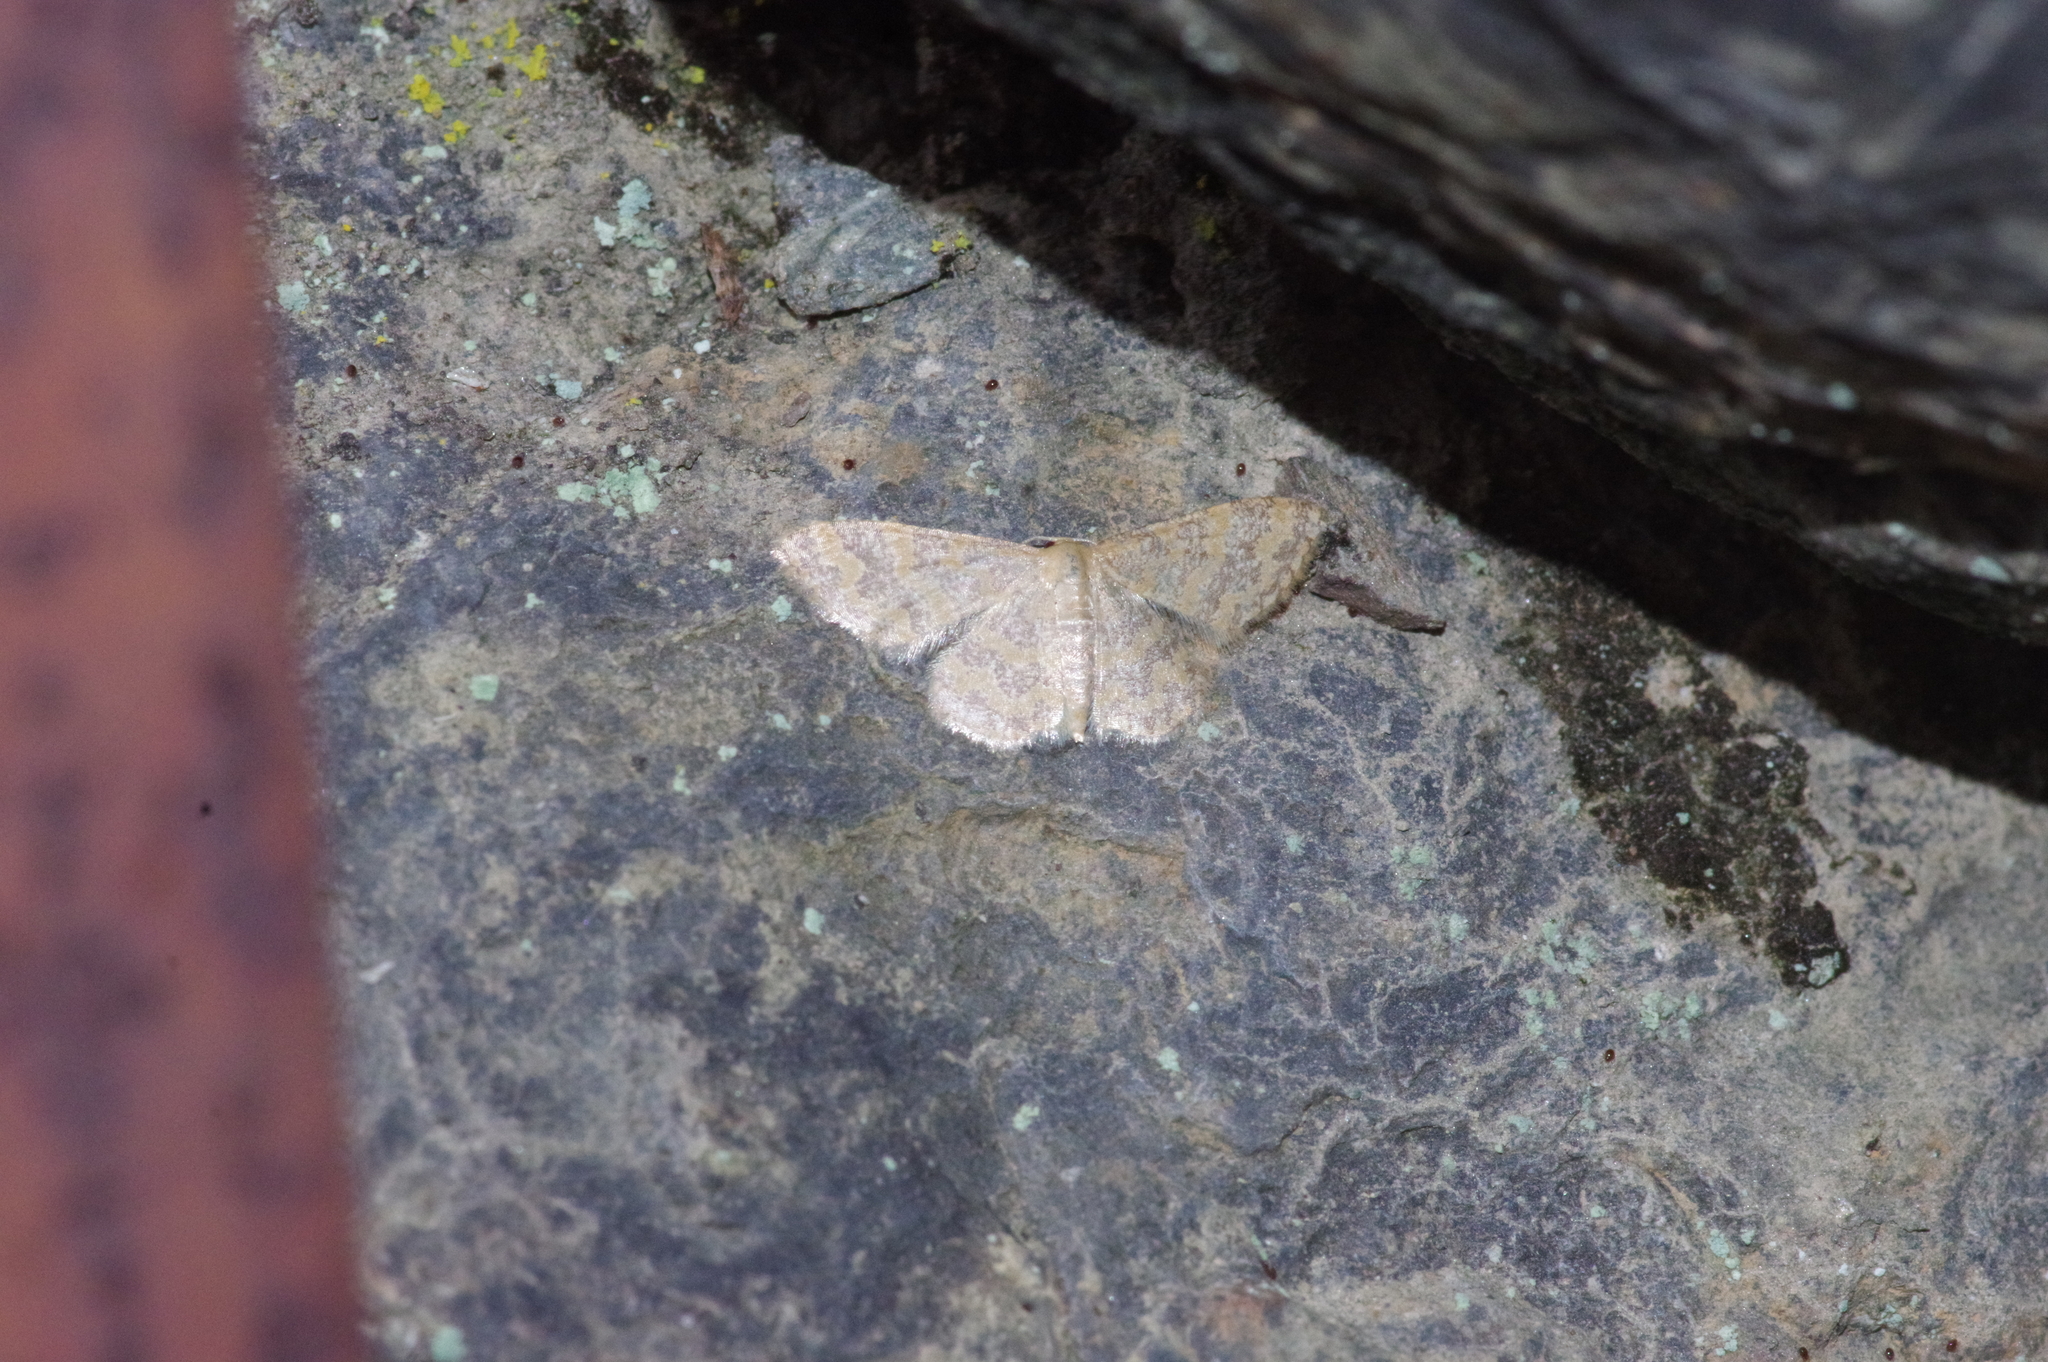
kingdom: Animalia
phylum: Arthropoda
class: Insecta
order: Lepidoptera
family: Geometridae
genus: Idaea
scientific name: Idaea auricruda
